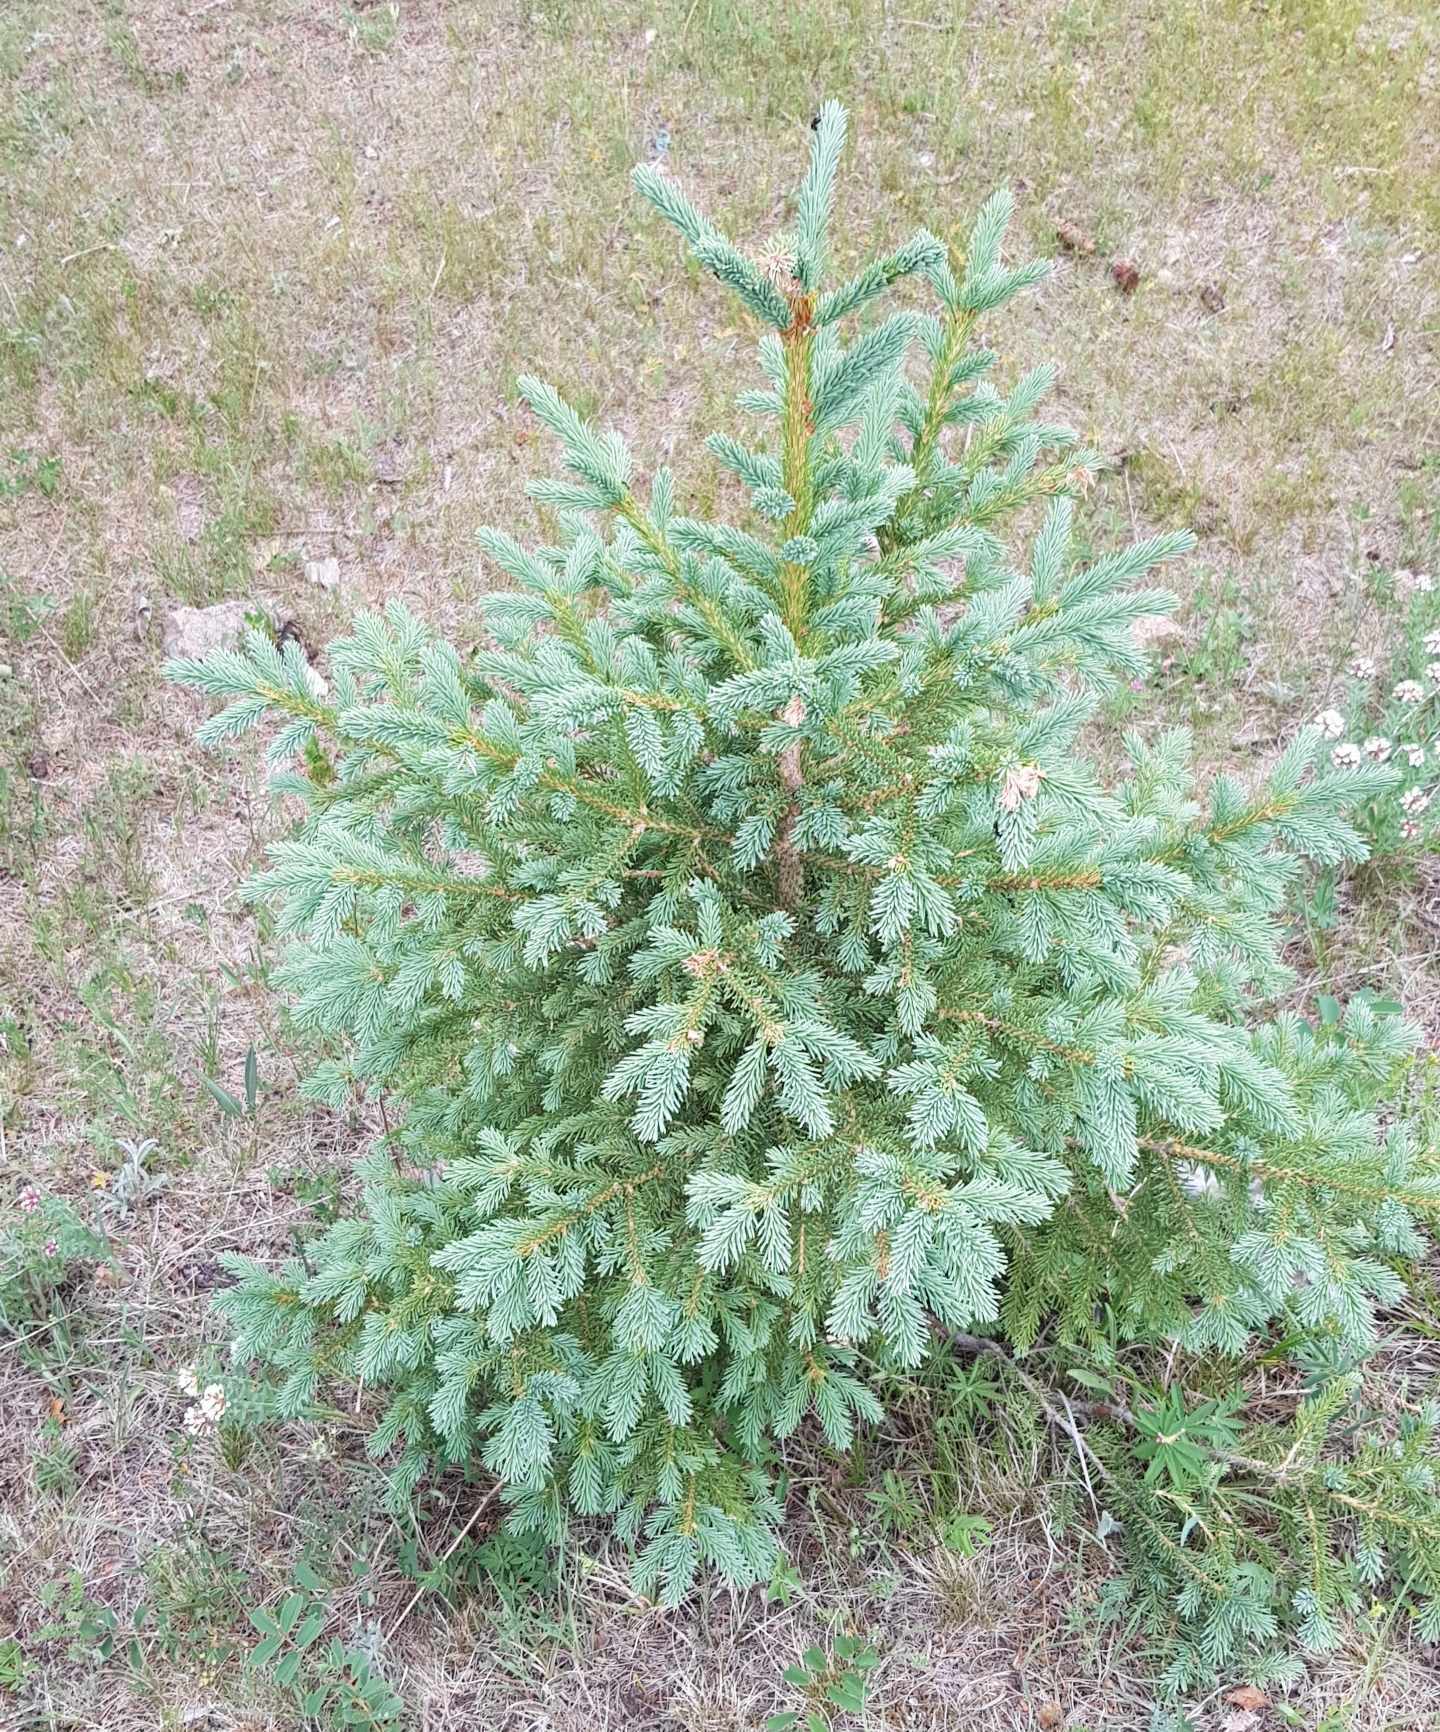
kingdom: Plantae
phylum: Tracheophyta
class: Pinopsida
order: Pinales
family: Pinaceae
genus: Picea
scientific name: Picea obovata
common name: Siberian spruce
